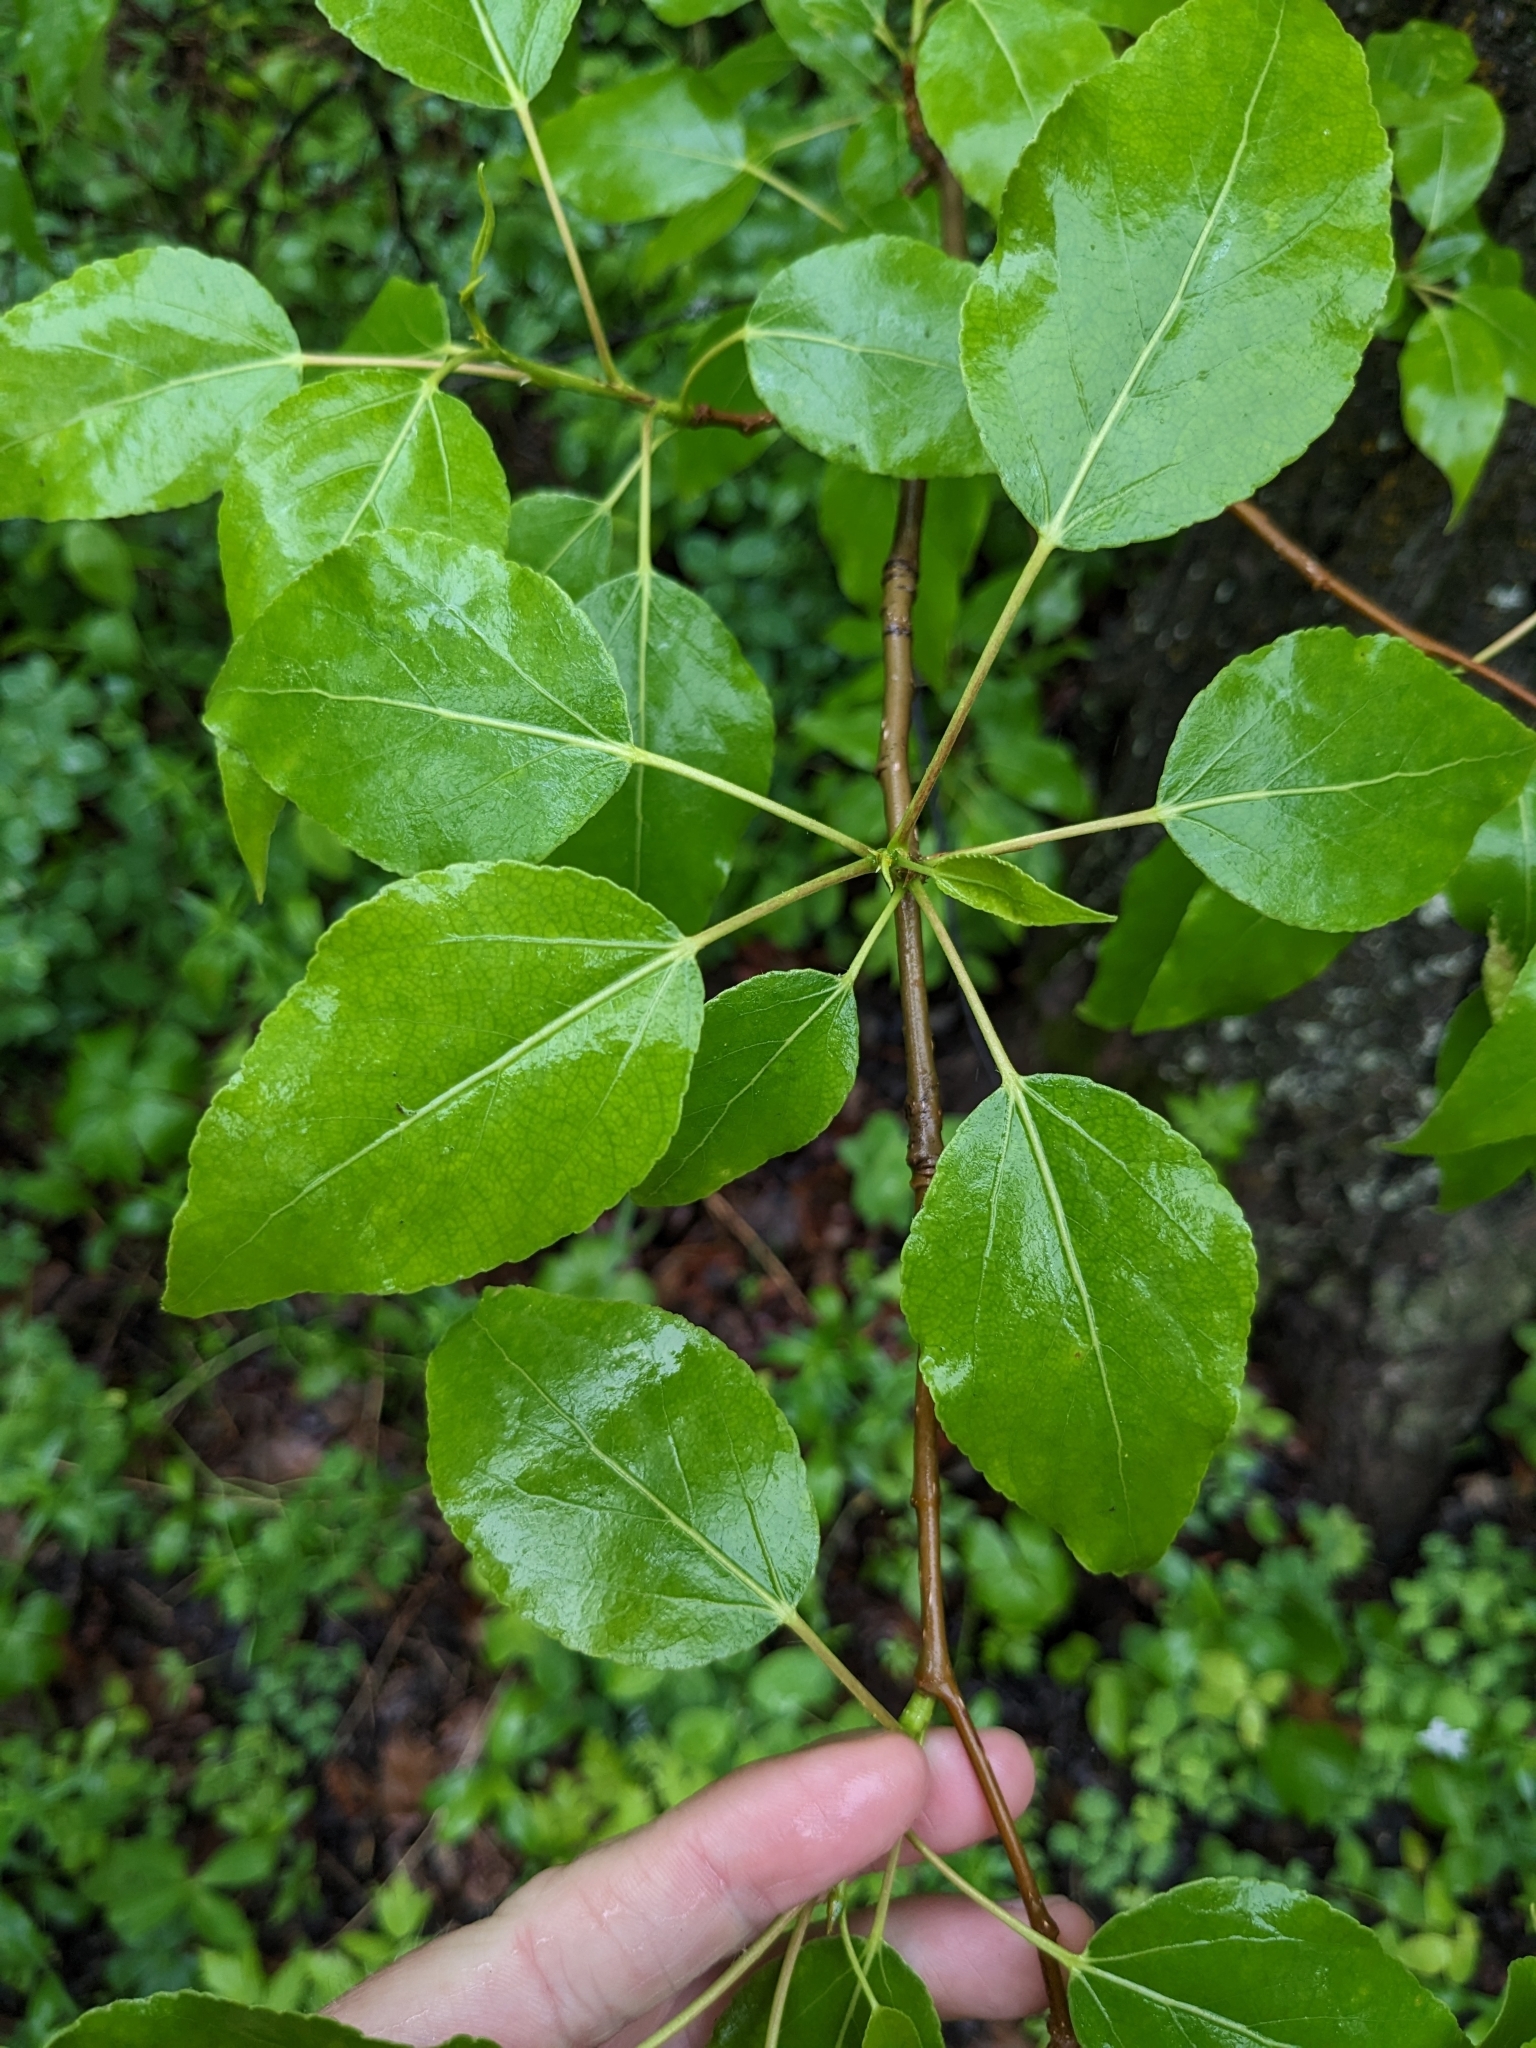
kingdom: Plantae
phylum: Tracheophyta
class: Magnoliopsida
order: Malpighiales
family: Salicaceae
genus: Populus
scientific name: Populus balsamifera
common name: Balsam poplar
